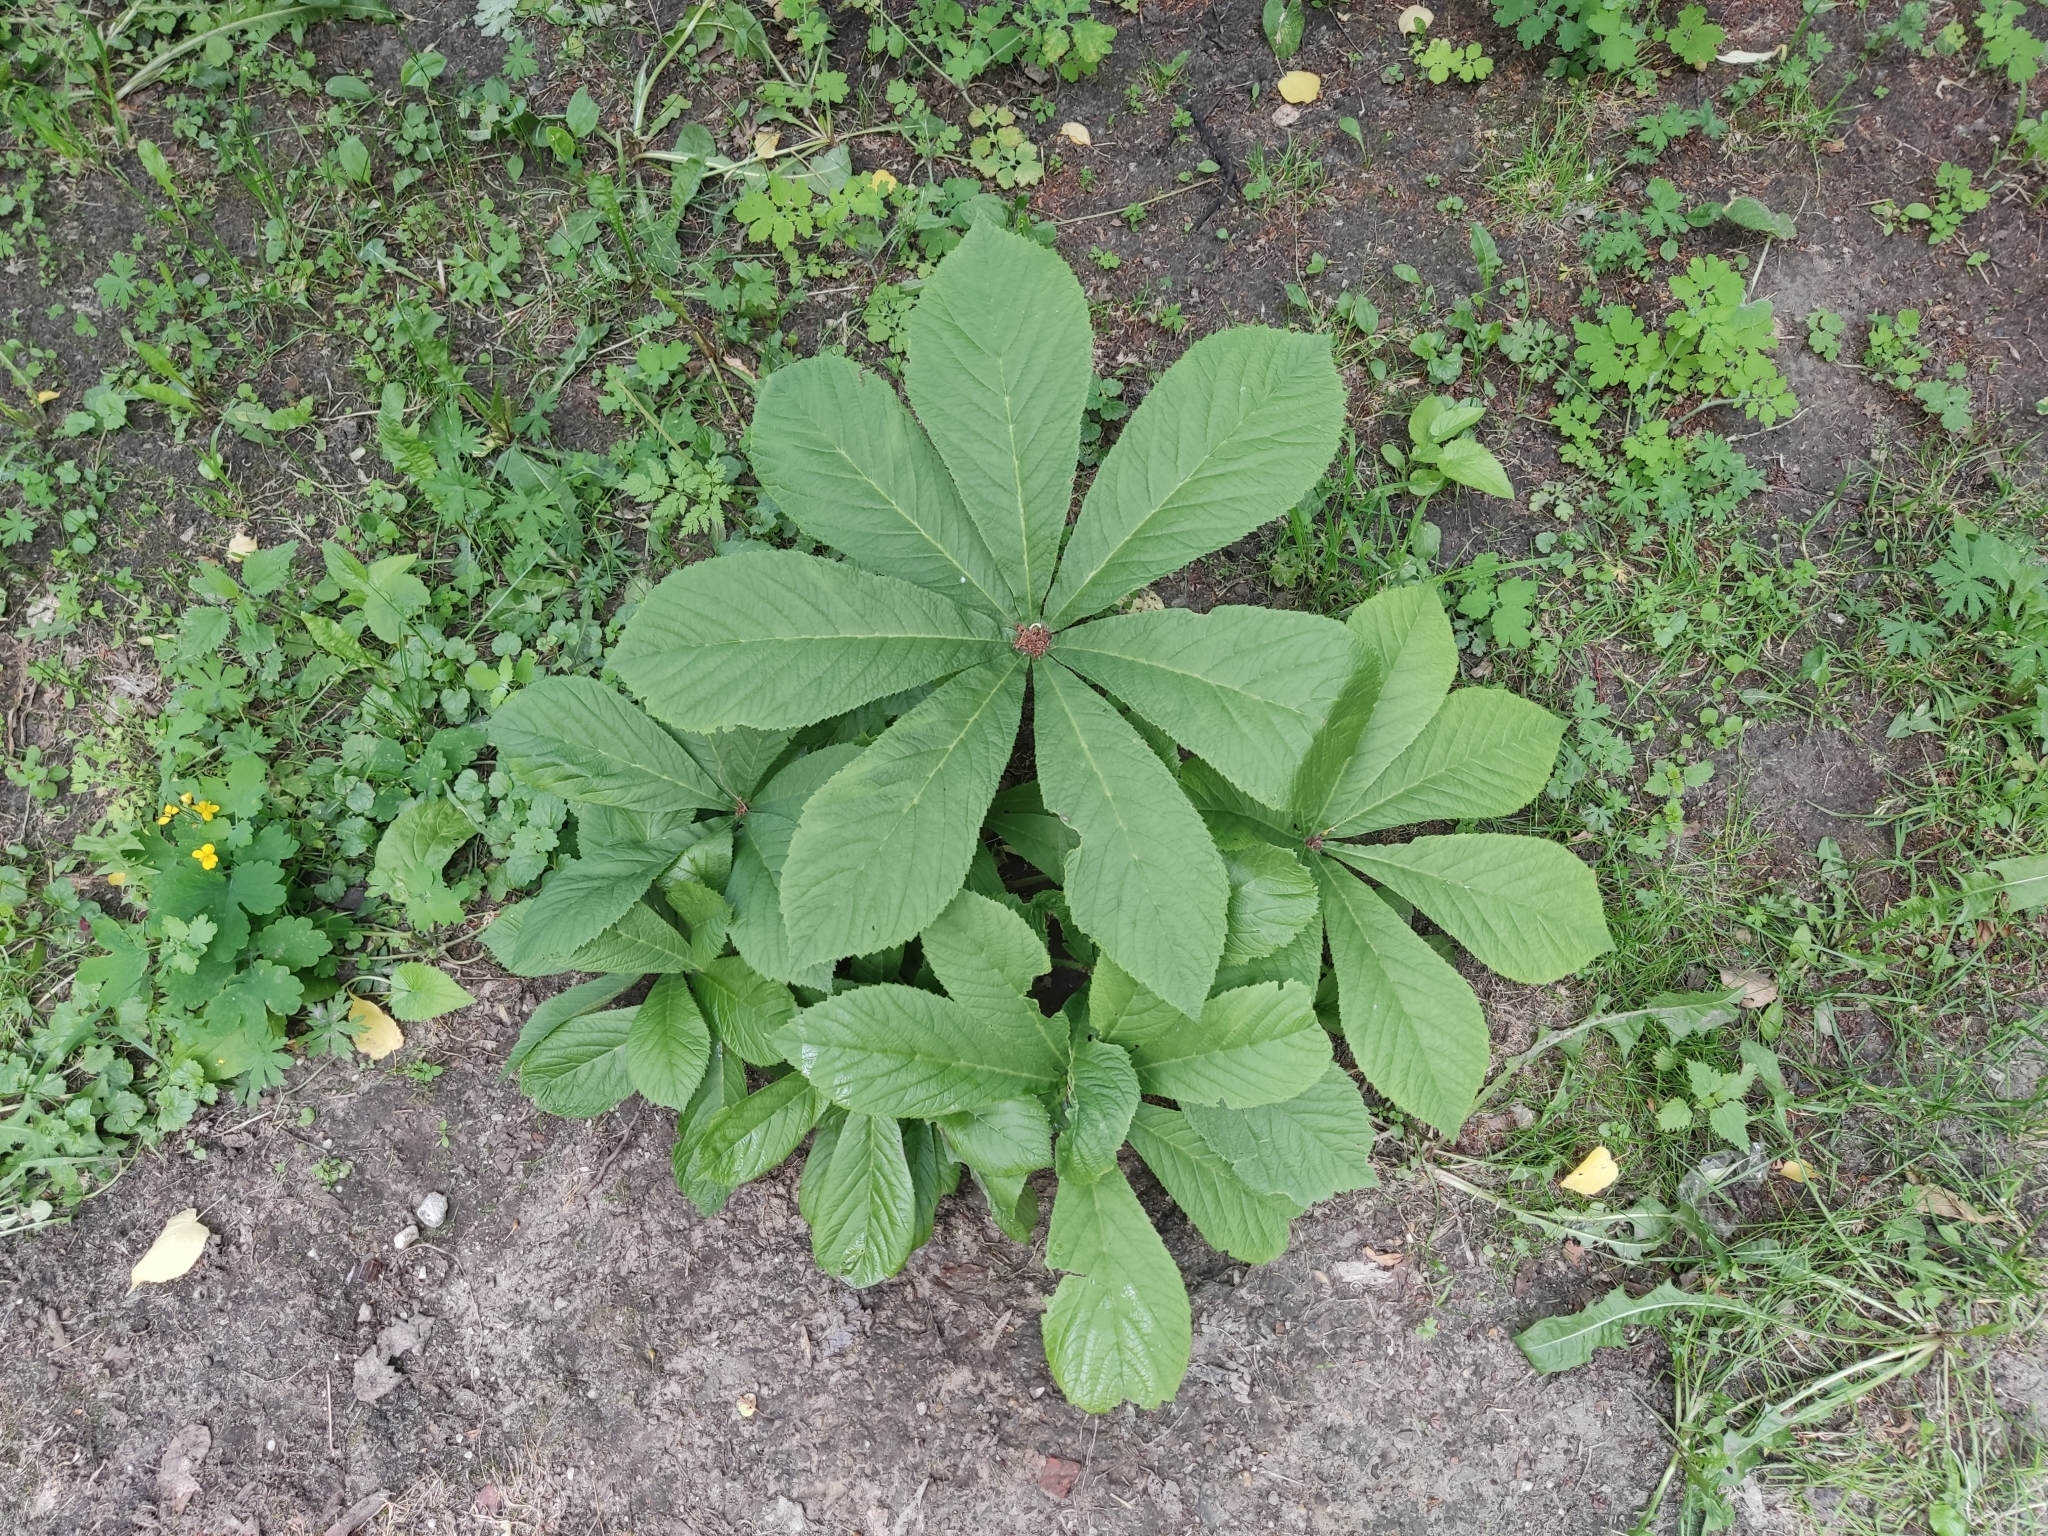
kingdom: Plantae
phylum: Tracheophyta
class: Magnoliopsida
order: Sapindales
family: Sapindaceae
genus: Aesculus
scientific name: Aesculus hippocastanum
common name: Horse-chestnut
